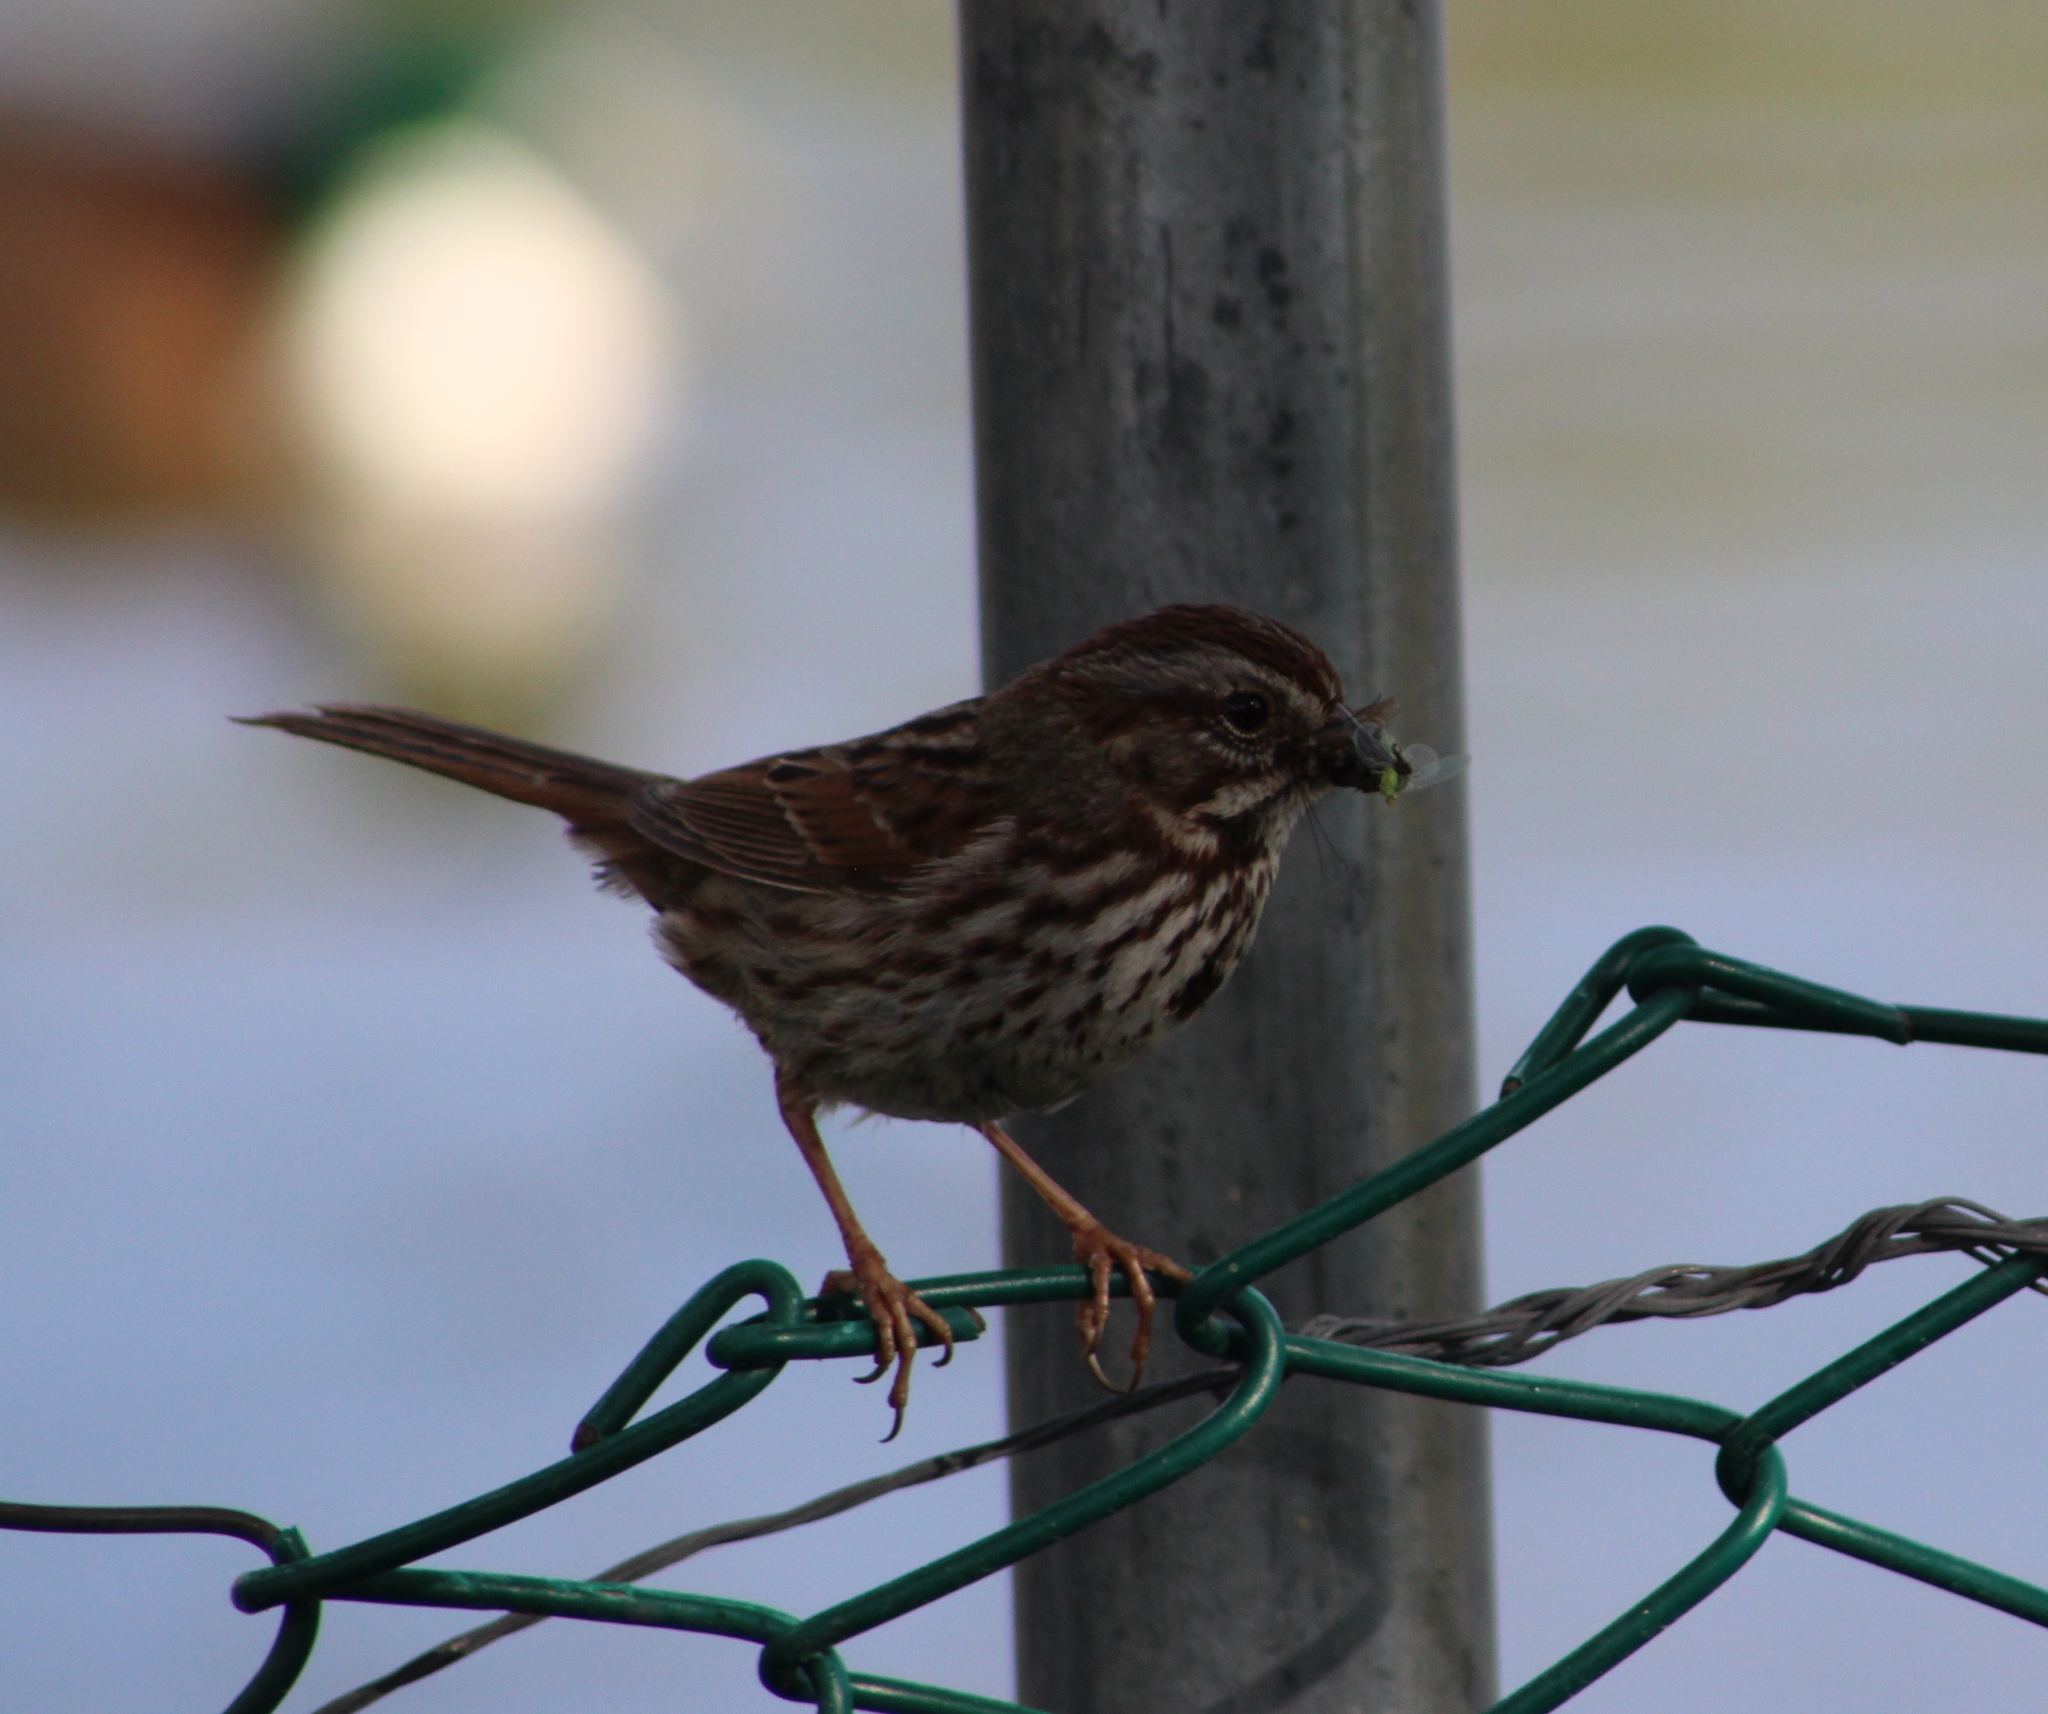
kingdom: Animalia
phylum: Chordata
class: Aves
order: Passeriformes
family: Passerellidae
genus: Melospiza
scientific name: Melospiza melodia
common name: Song sparrow
